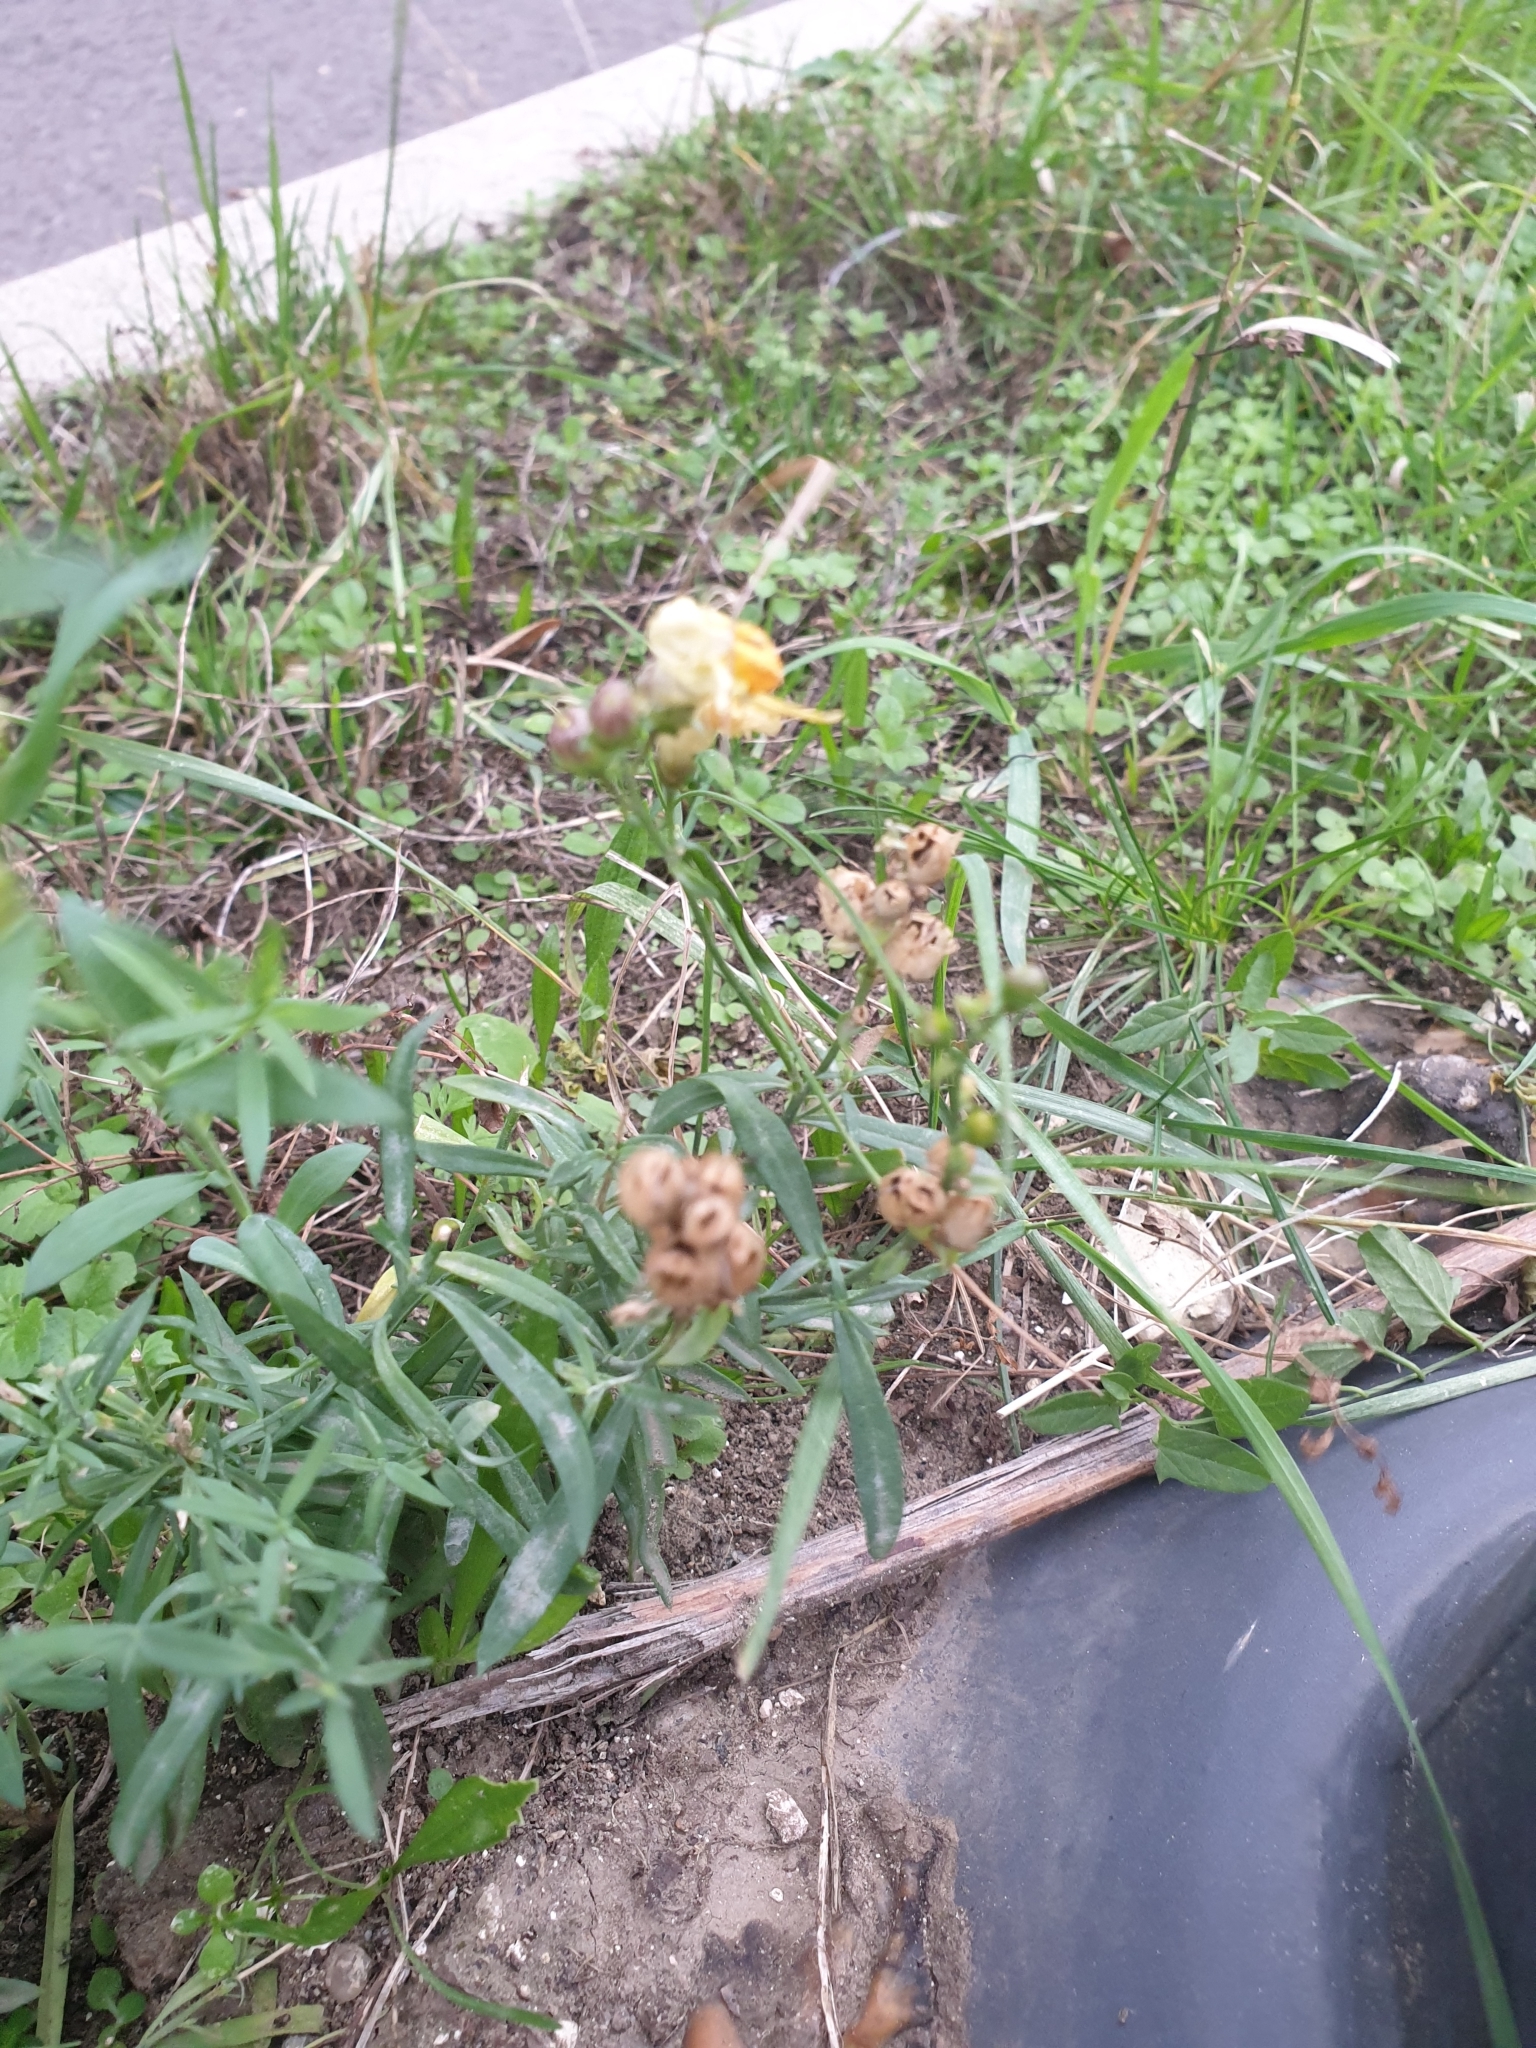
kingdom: Plantae
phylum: Tracheophyta
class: Magnoliopsida
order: Lamiales
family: Plantaginaceae
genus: Linaria
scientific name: Linaria vulgaris
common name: Butter and eggs
